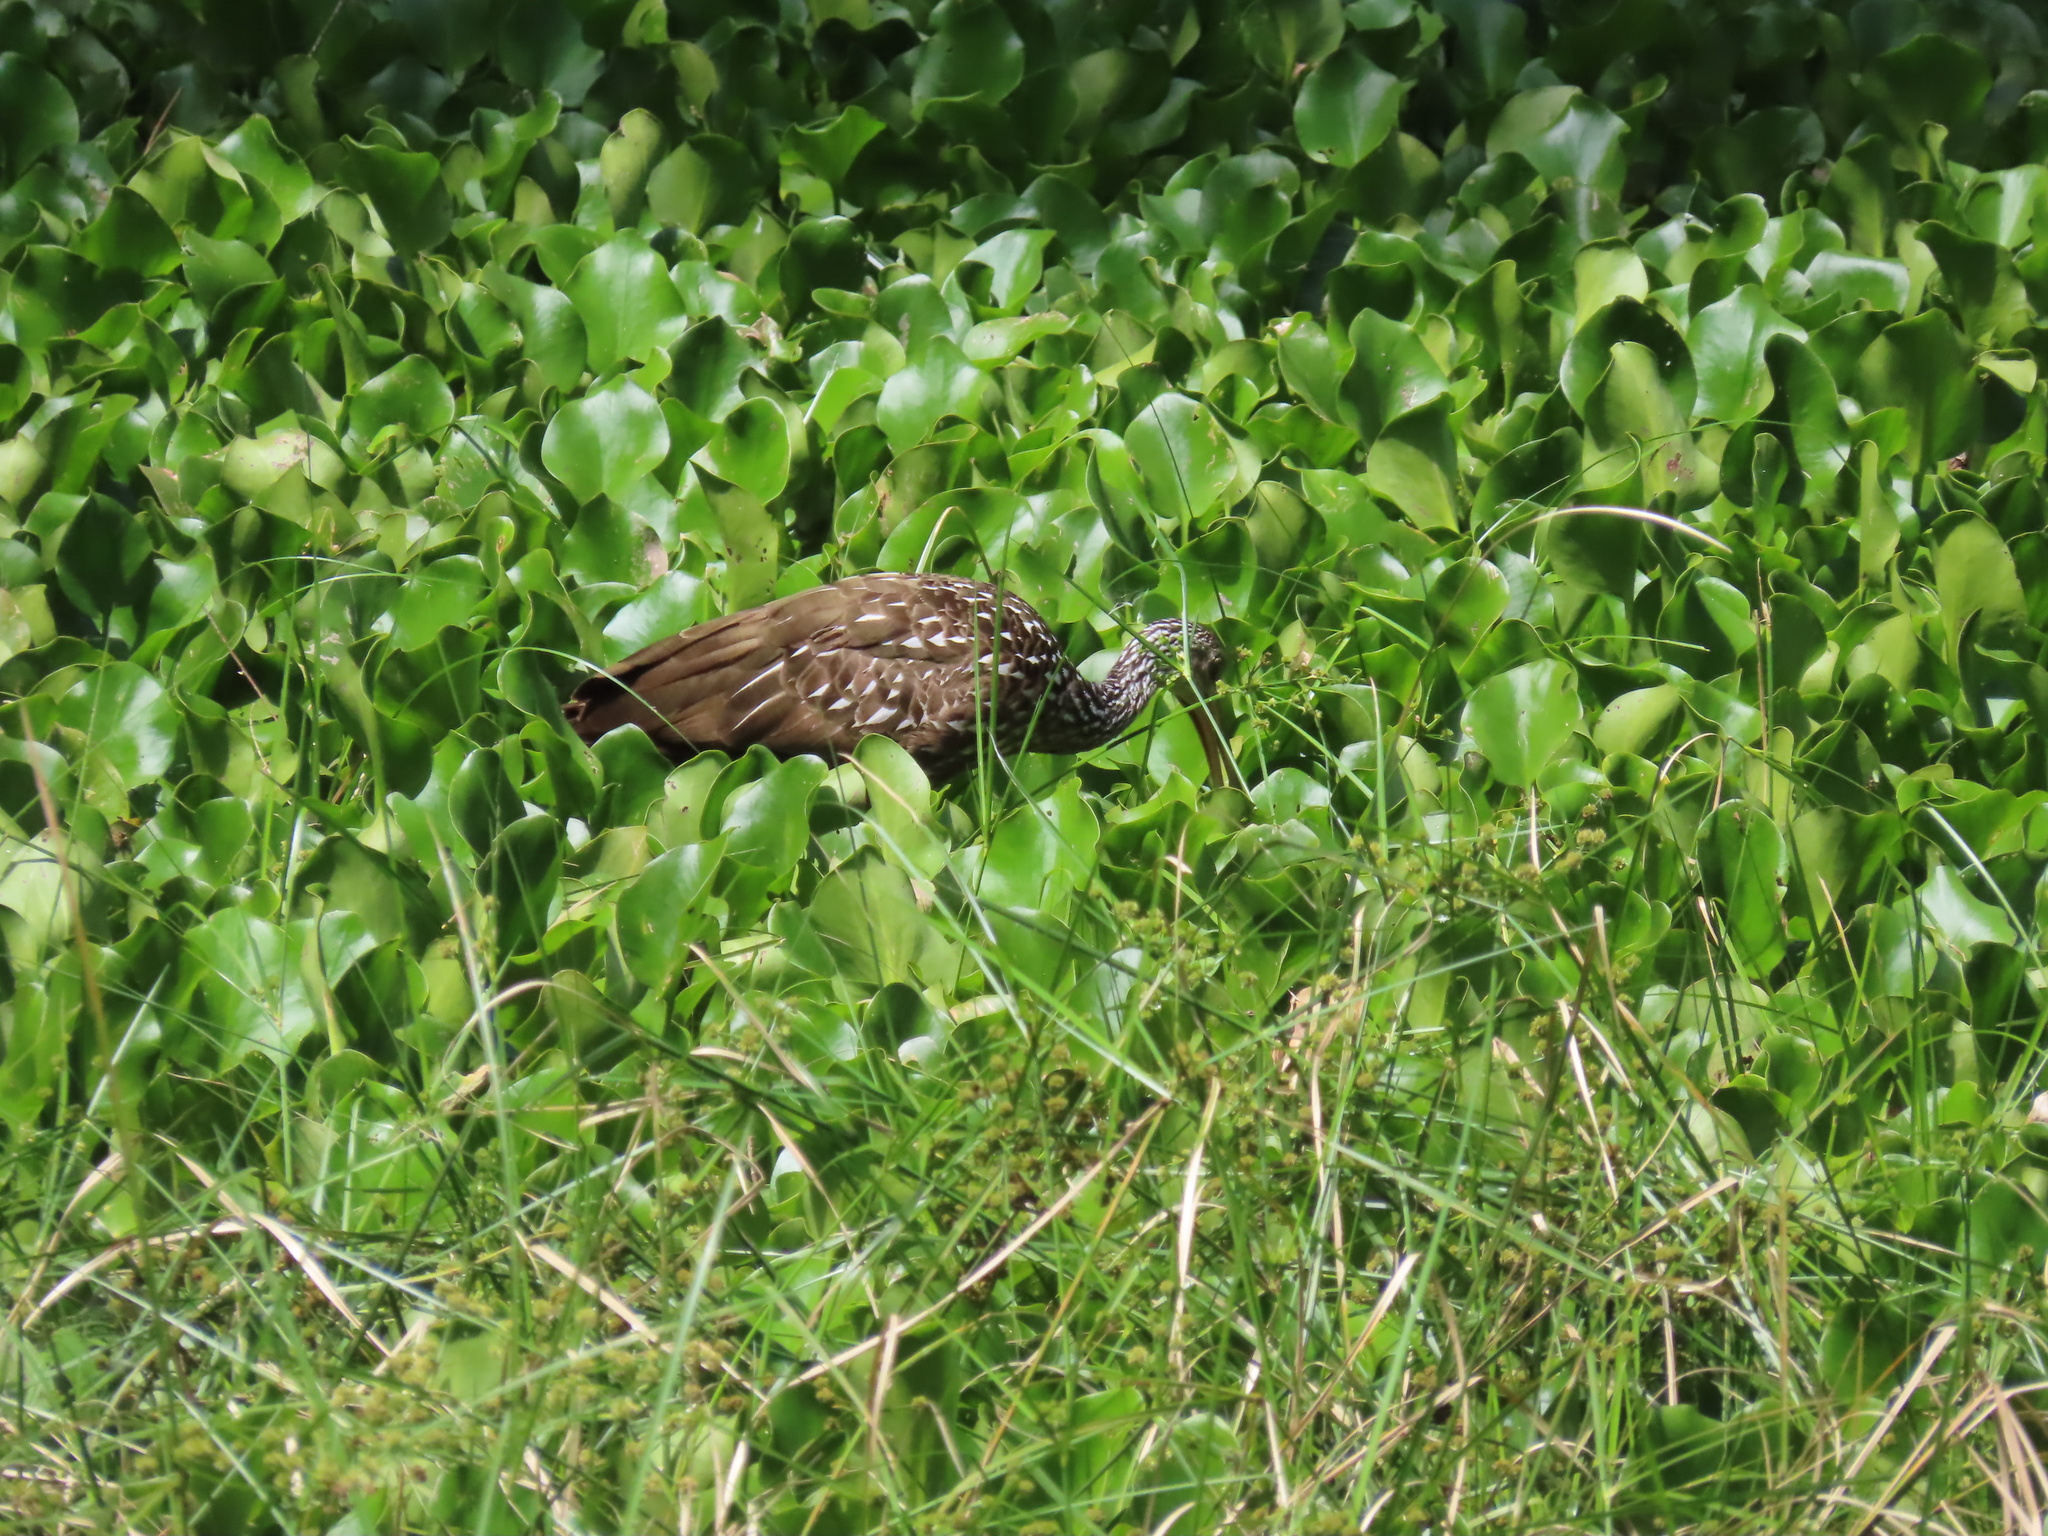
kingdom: Animalia
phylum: Chordata
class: Aves
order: Gruiformes
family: Aramidae
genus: Aramus
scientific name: Aramus guarauna
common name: Limpkin
